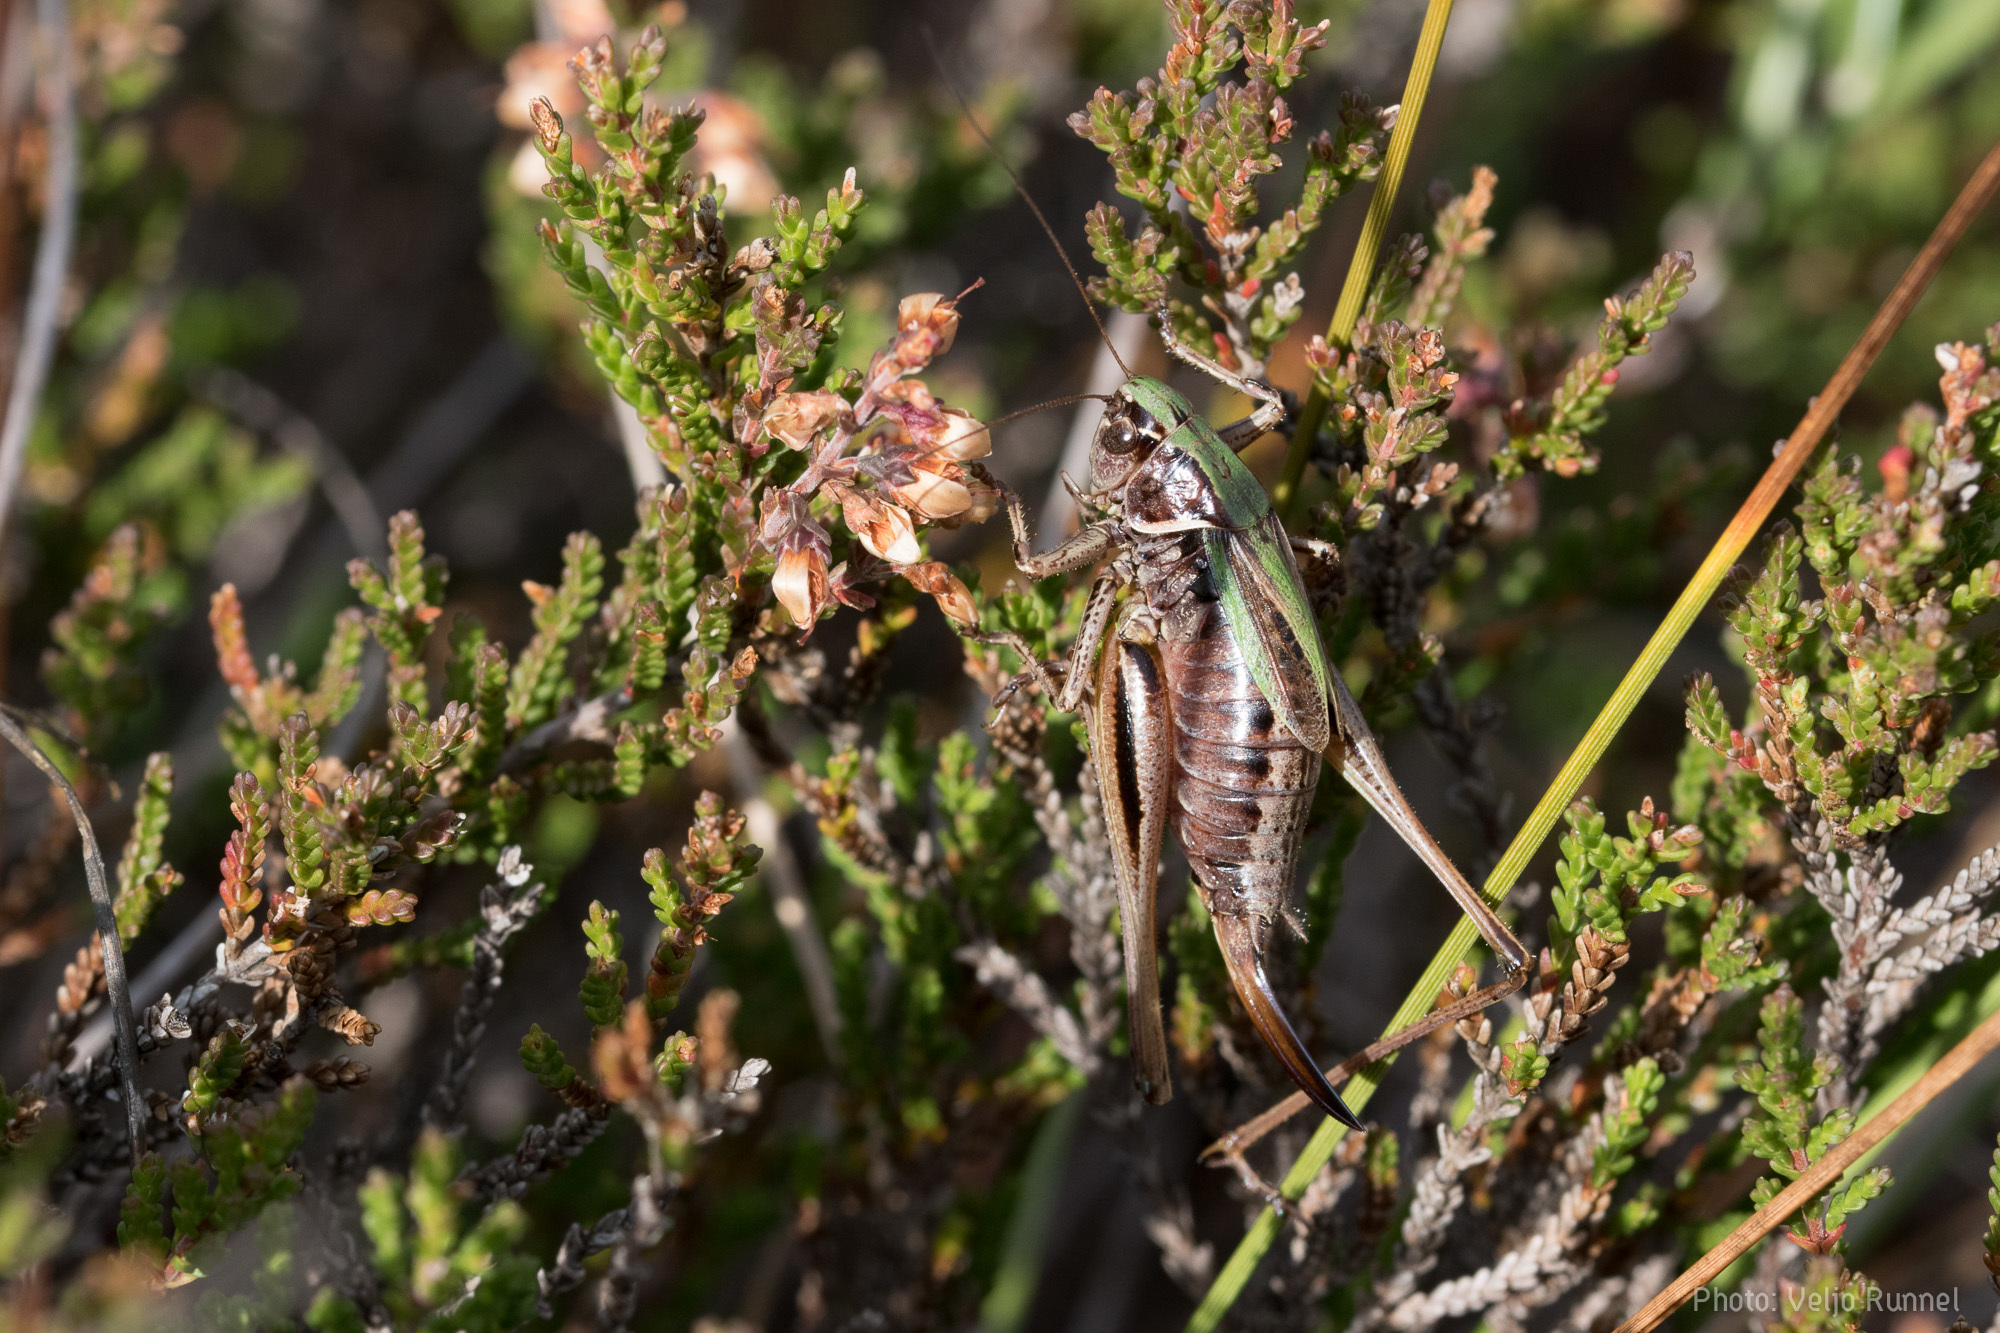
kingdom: Animalia
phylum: Arthropoda
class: Insecta
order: Orthoptera
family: Tettigoniidae
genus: Metrioptera
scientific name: Metrioptera brachyptera
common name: Bog bush-cricket
